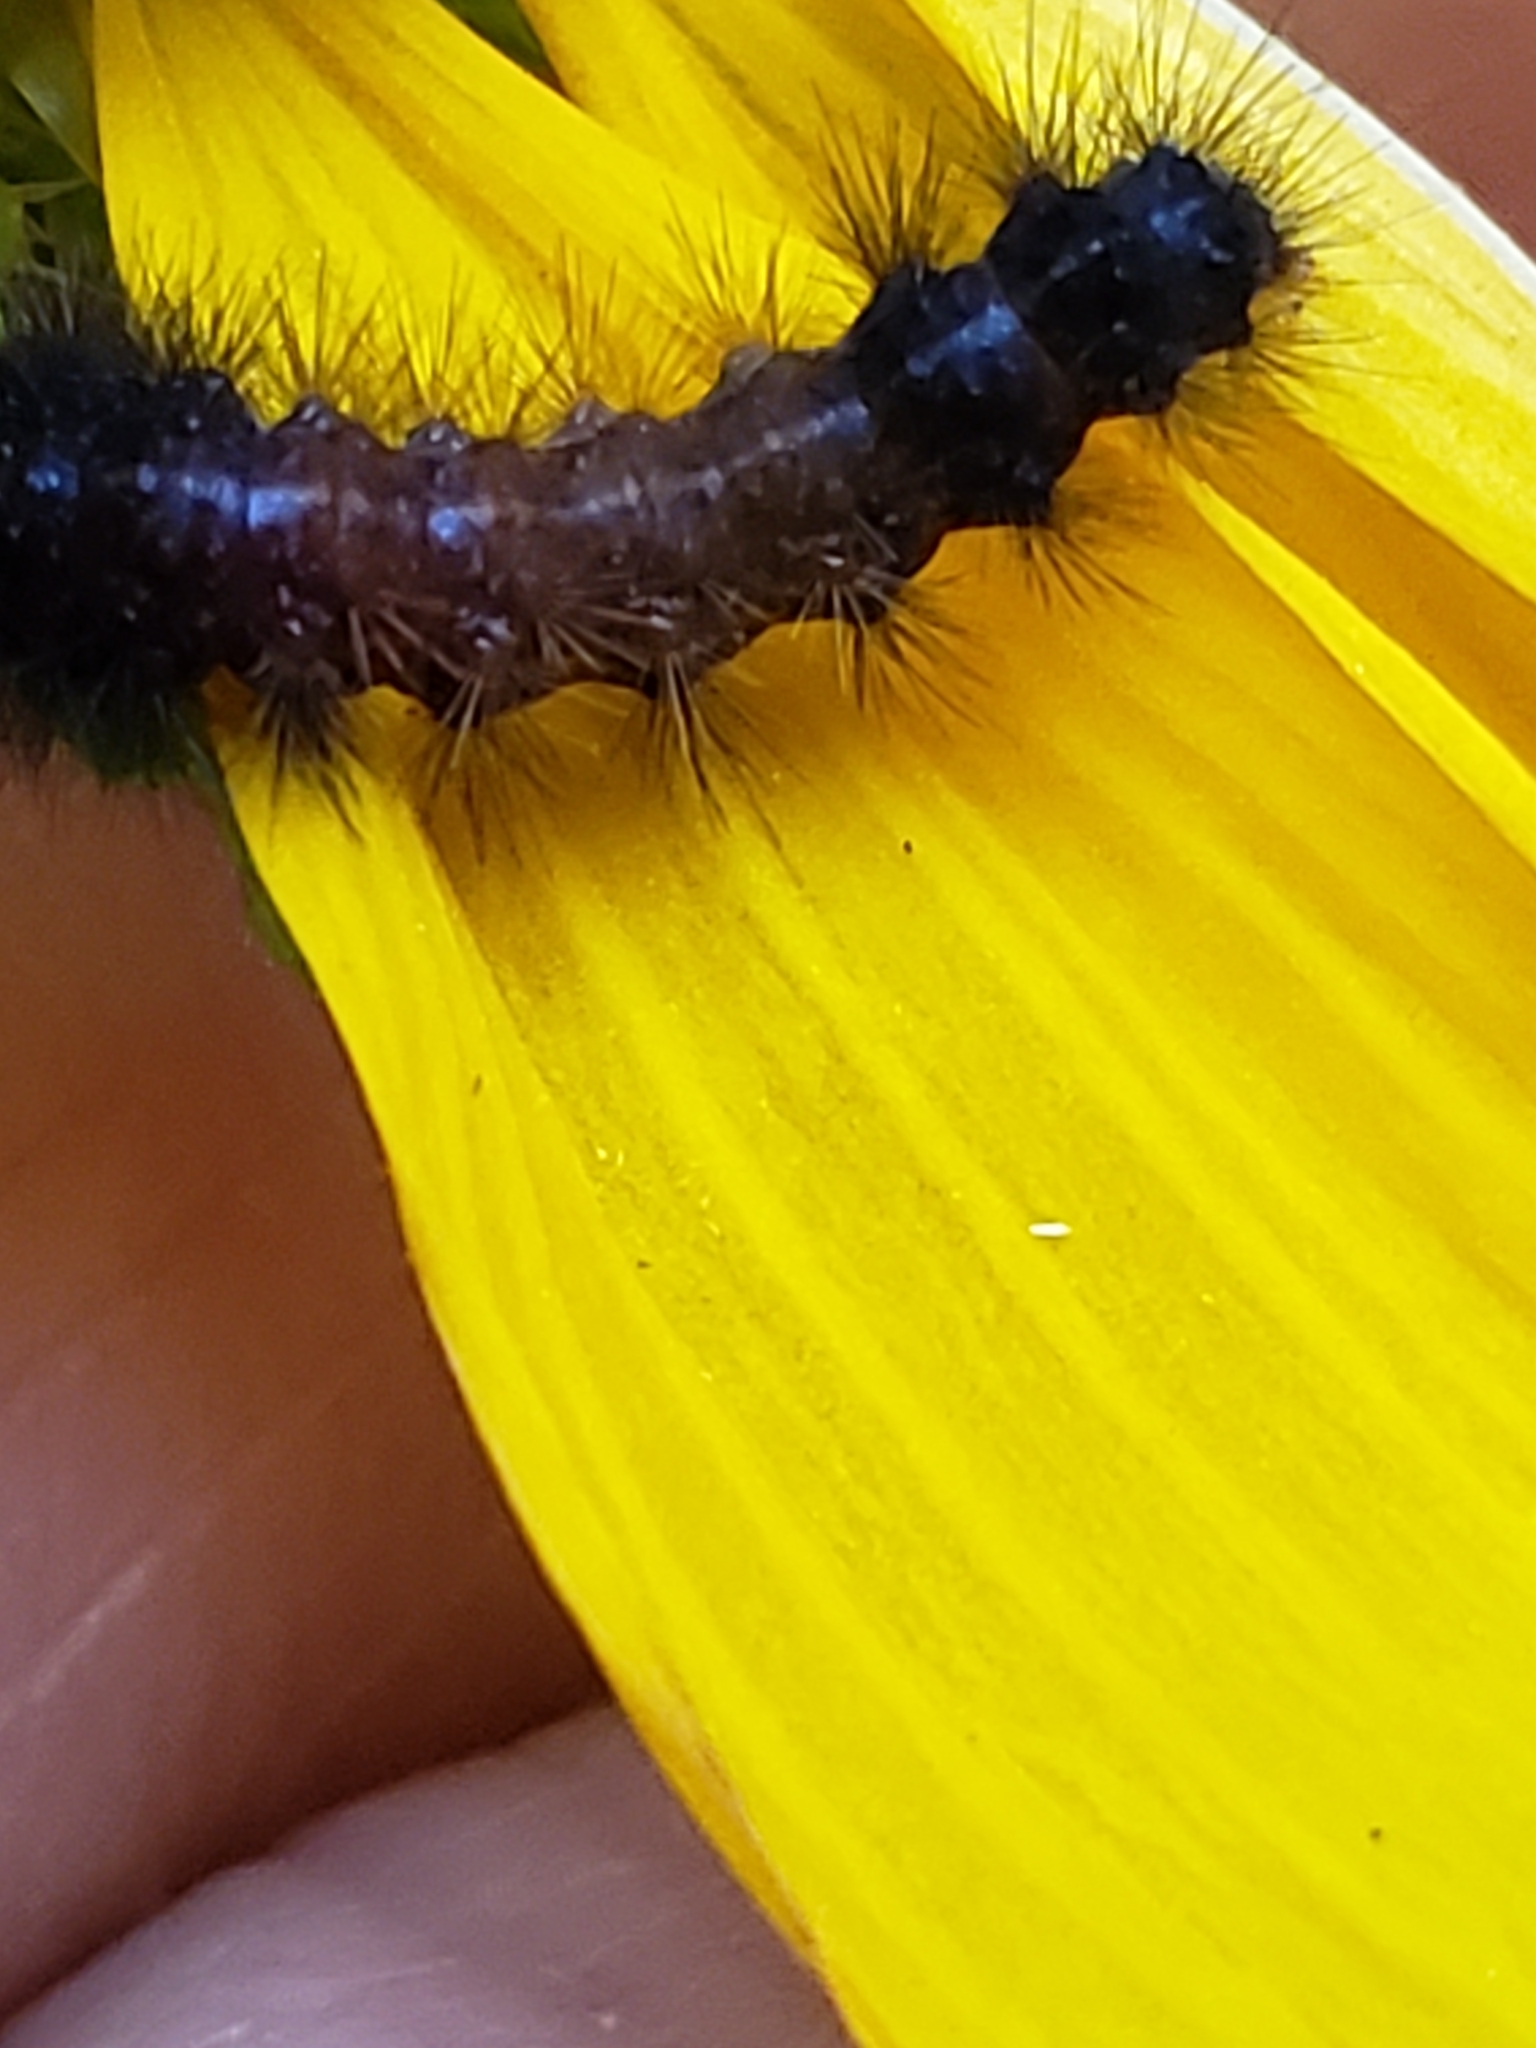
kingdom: Animalia
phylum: Arthropoda
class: Insecta
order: Lepidoptera
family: Erebidae
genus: Hypercompe
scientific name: Hypercompe scribonia
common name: Giant leopard moth
